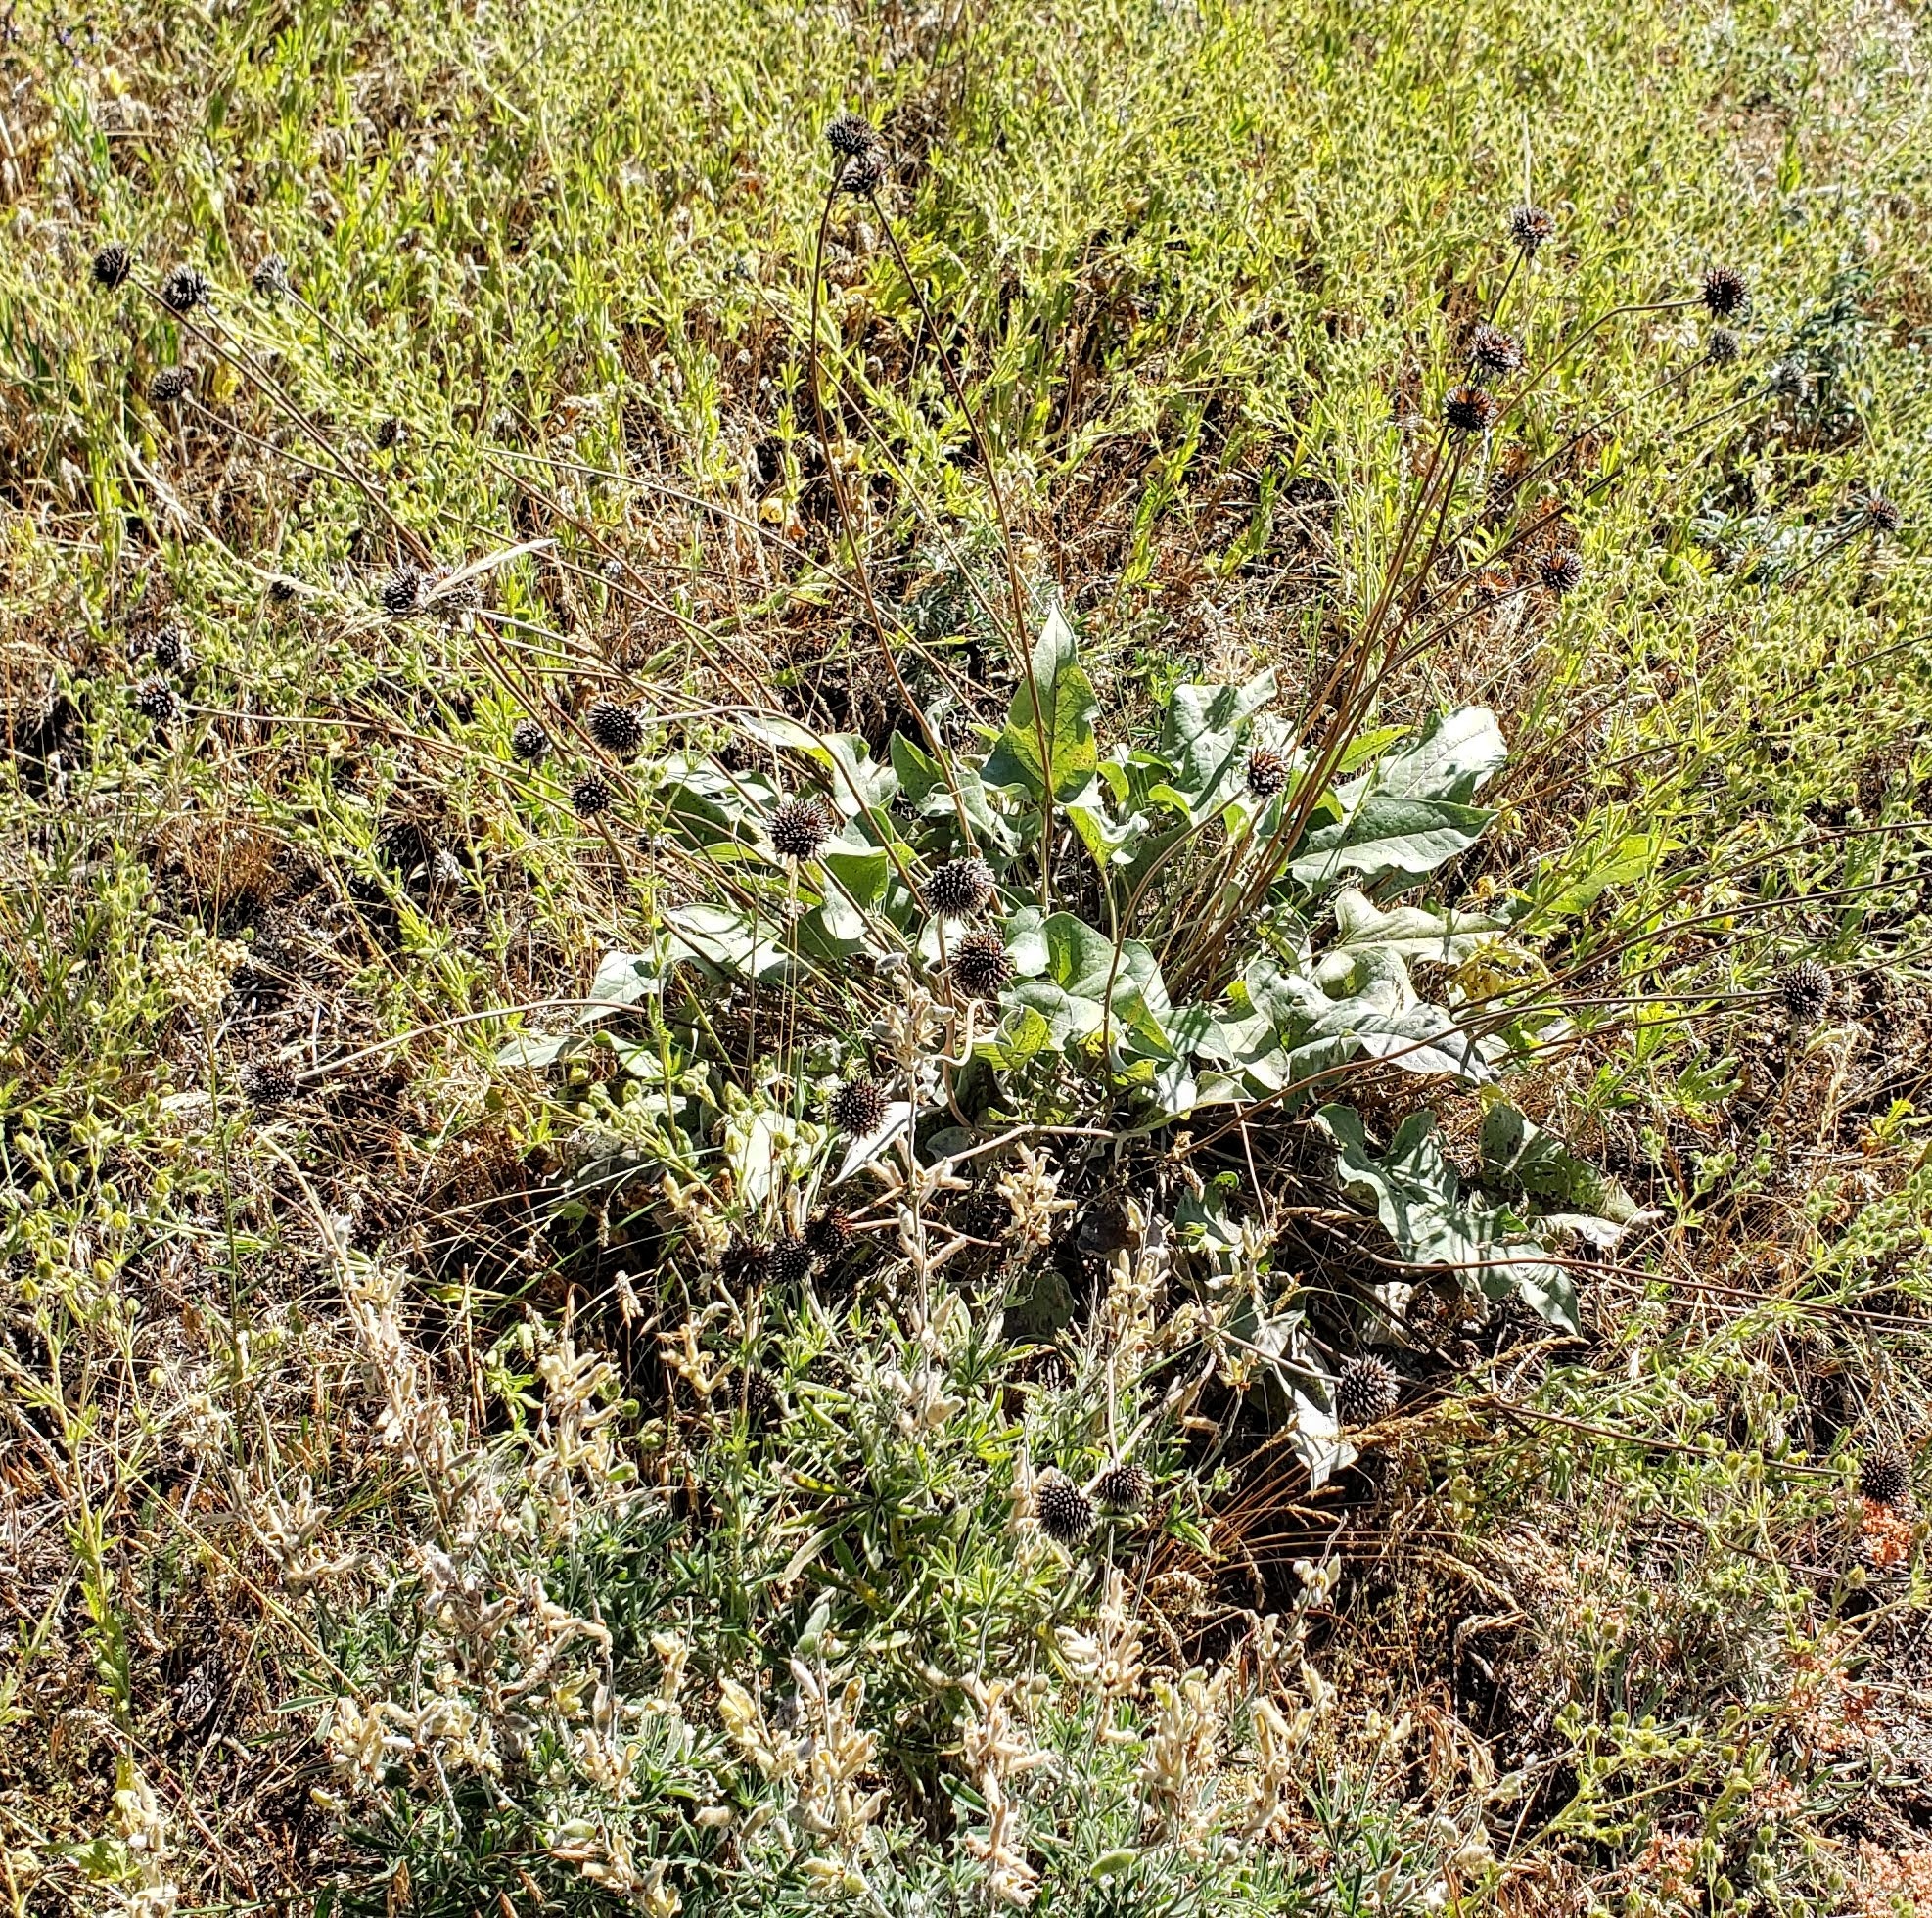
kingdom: Plantae
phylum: Tracheophyta
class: Magnoliopsida
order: Asterales
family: Asteraceae
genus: Wyethia
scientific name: Wyethia sagittata
